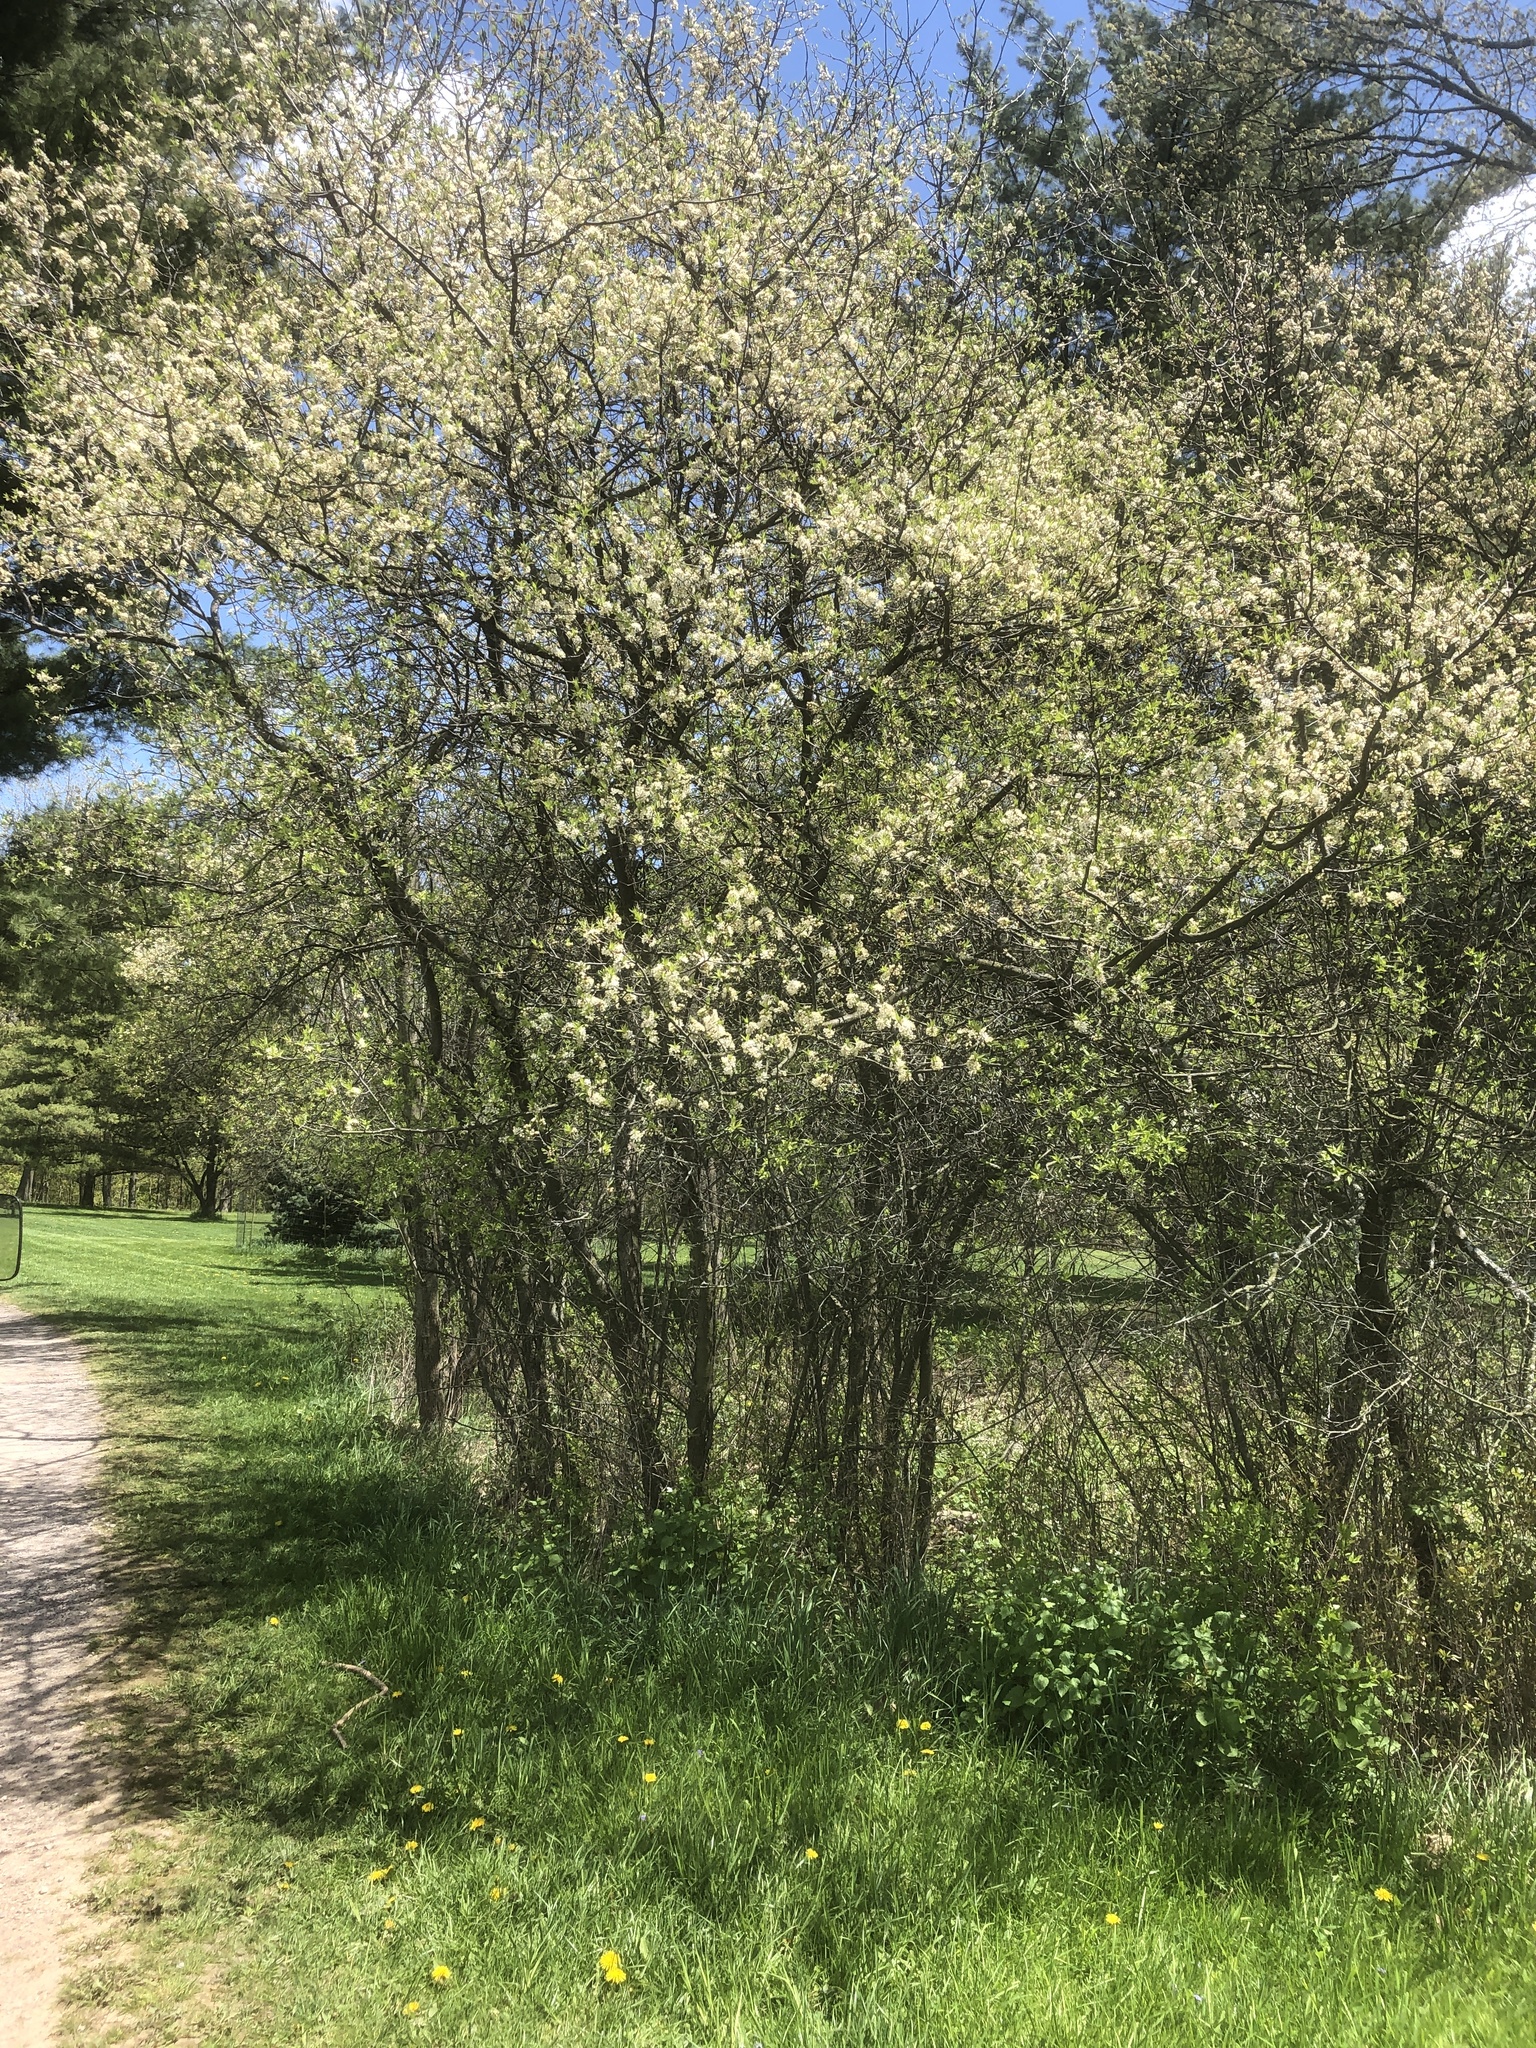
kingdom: Plantae
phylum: Tracheophyta
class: Magnoliopsida
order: Rosales
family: Rosaceae
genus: Prunus
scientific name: Prunus americana
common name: American plum
